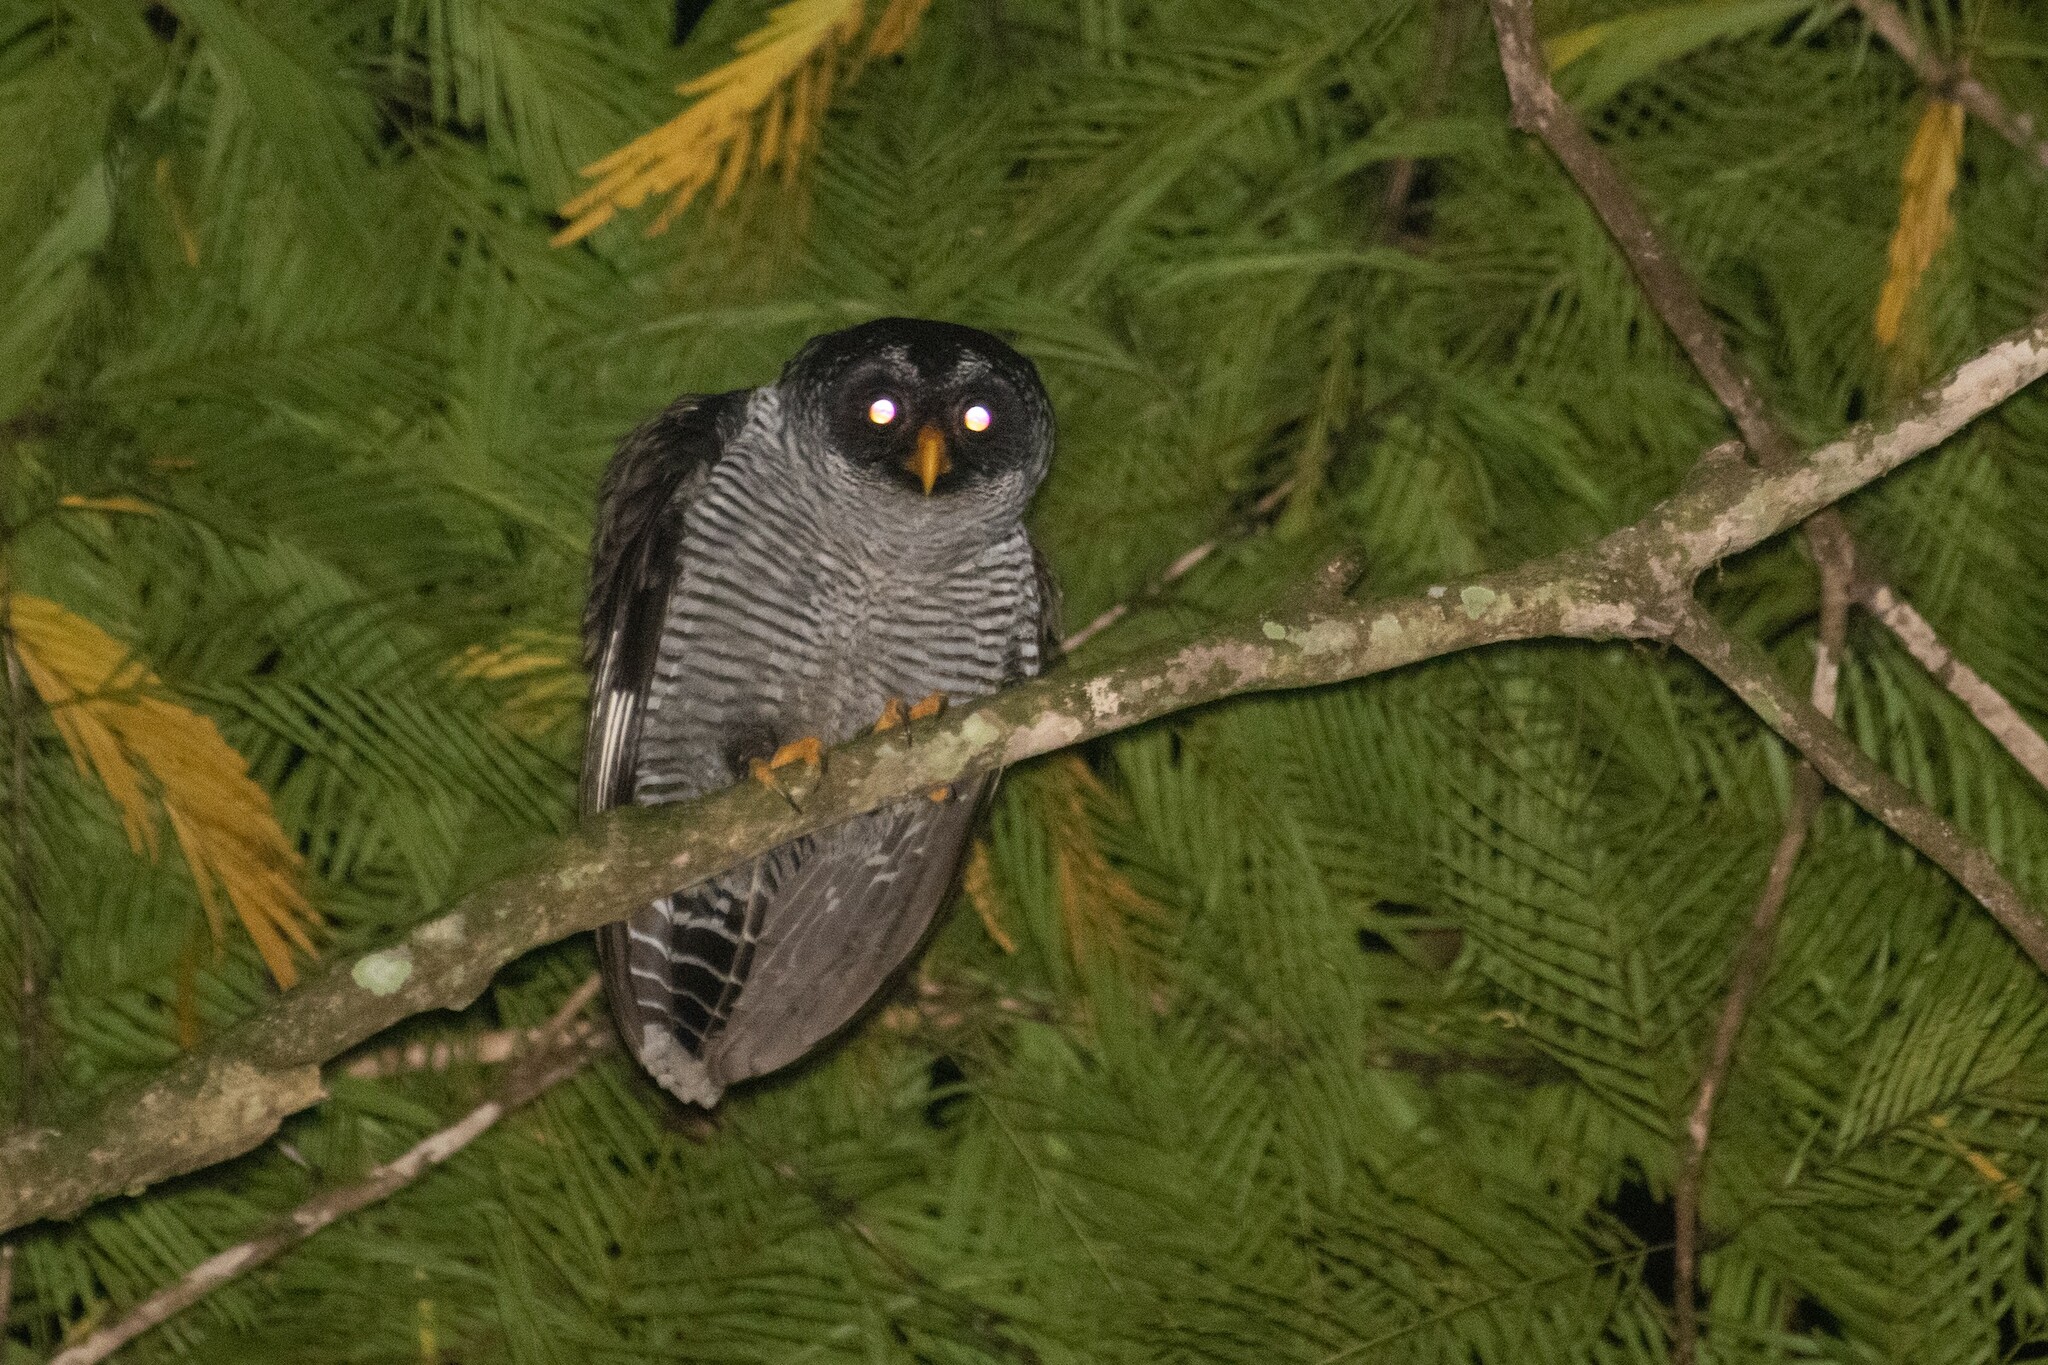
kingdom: Animalia
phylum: Chordata
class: Aves
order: Strigiformes
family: Strigidae
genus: Strix
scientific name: Strix nigrolineata
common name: Black-and-white owl
